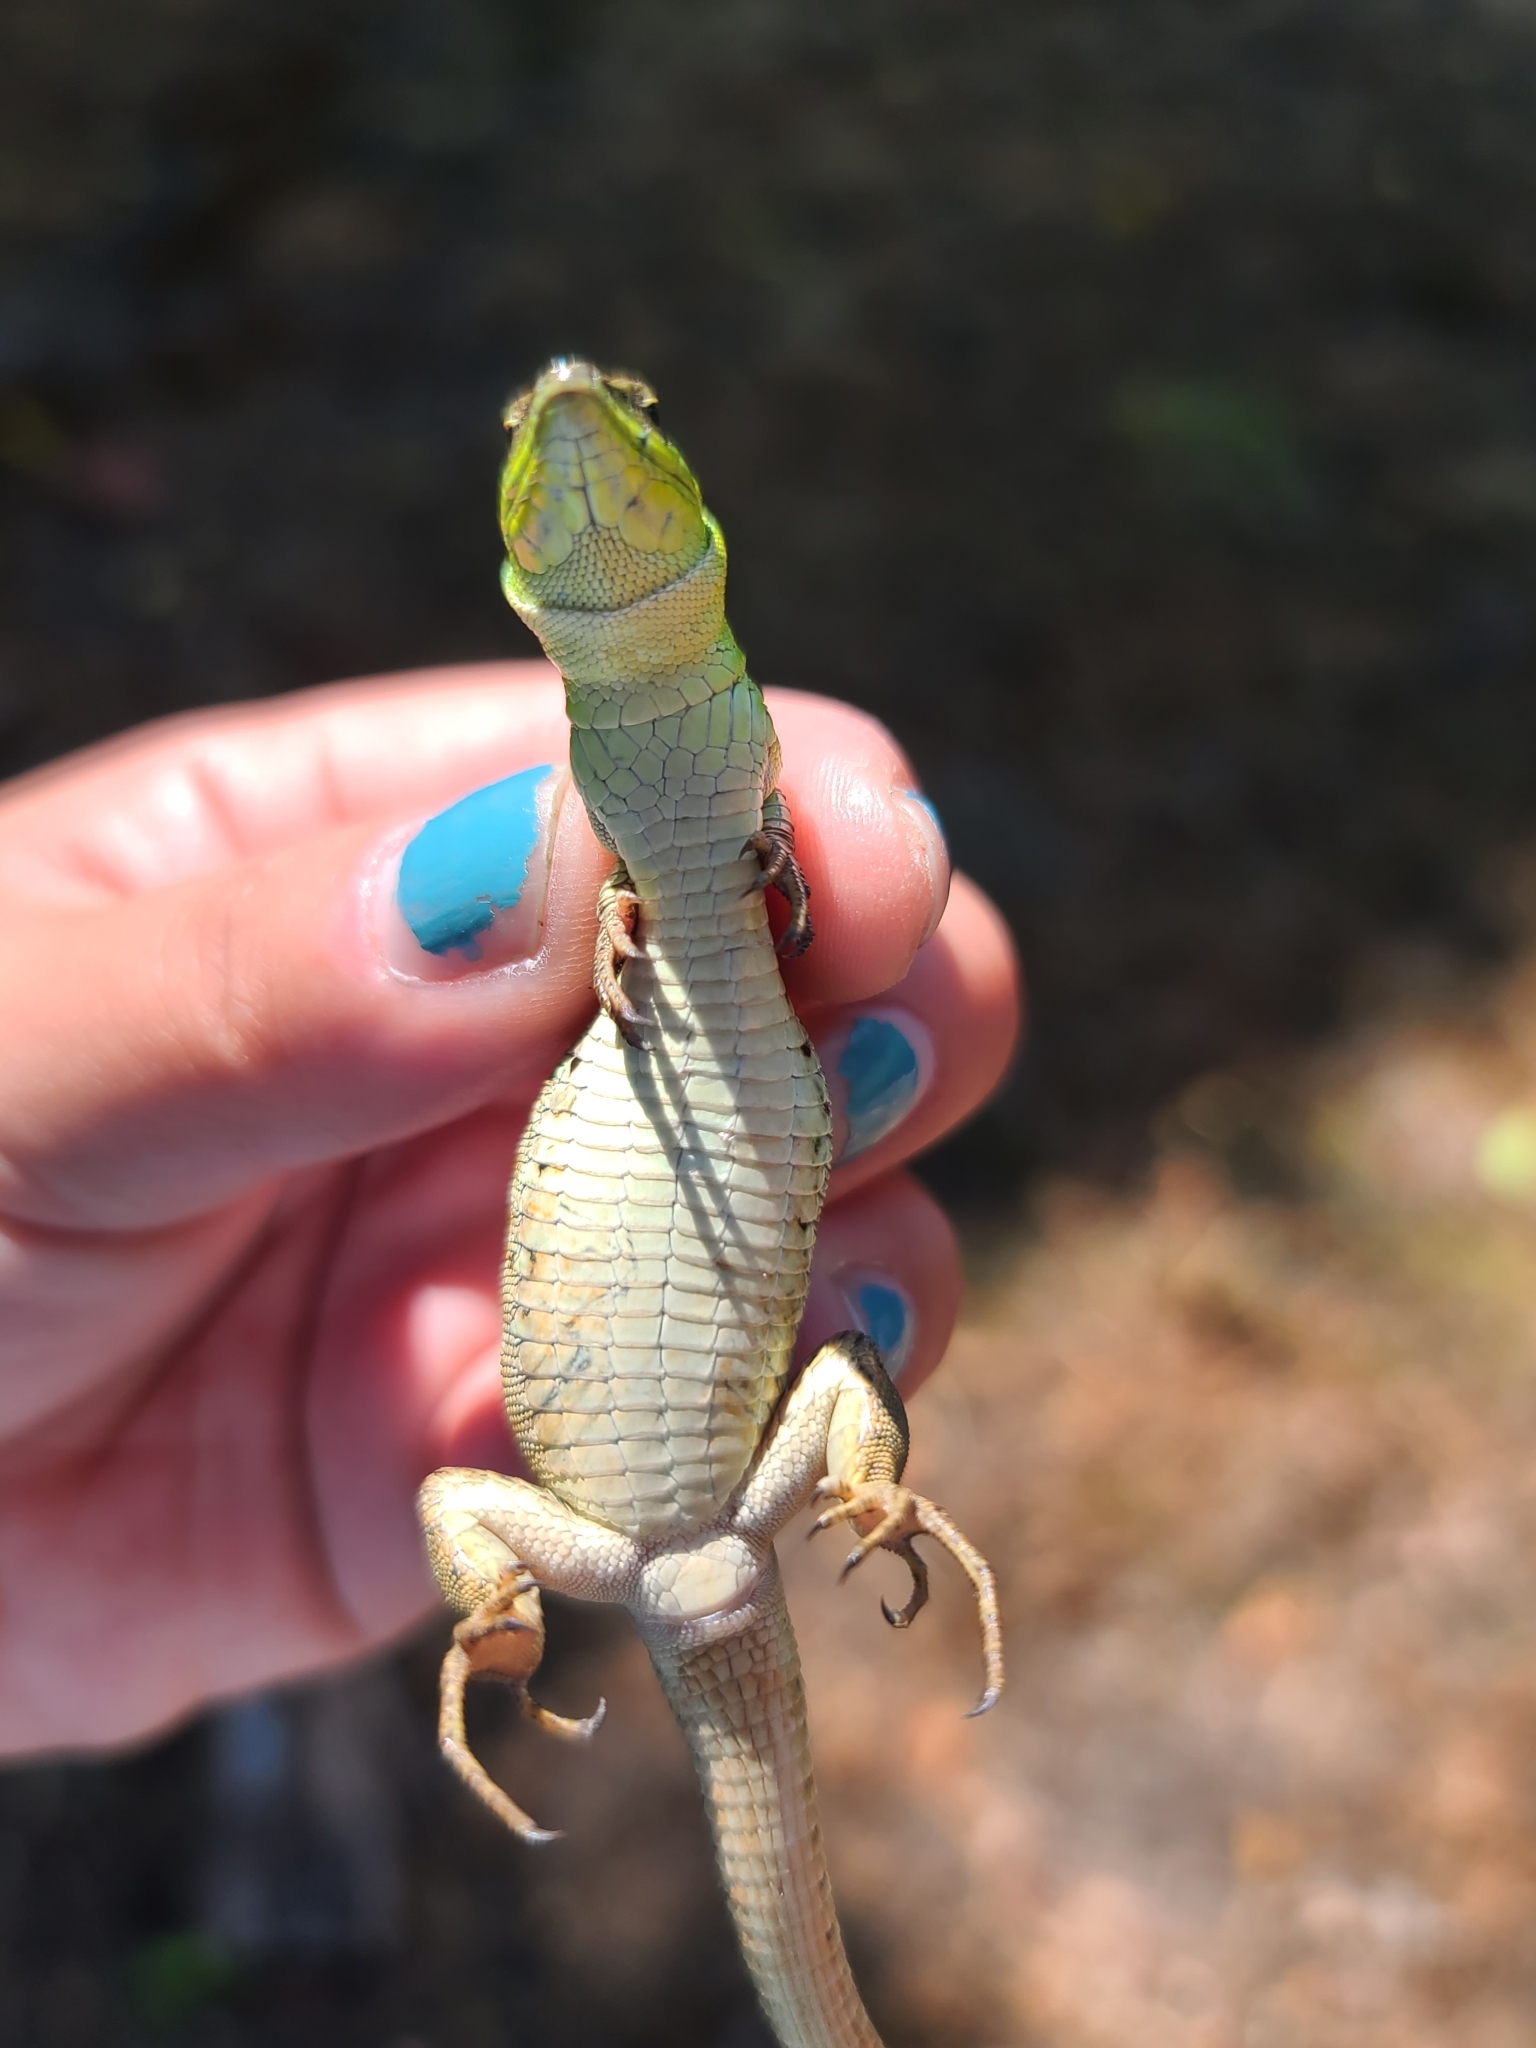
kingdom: Animalia
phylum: Chordata
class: Squamata
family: Lacertidae
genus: Podarcis
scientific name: Podarcis siculus
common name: Italian wall lizard
